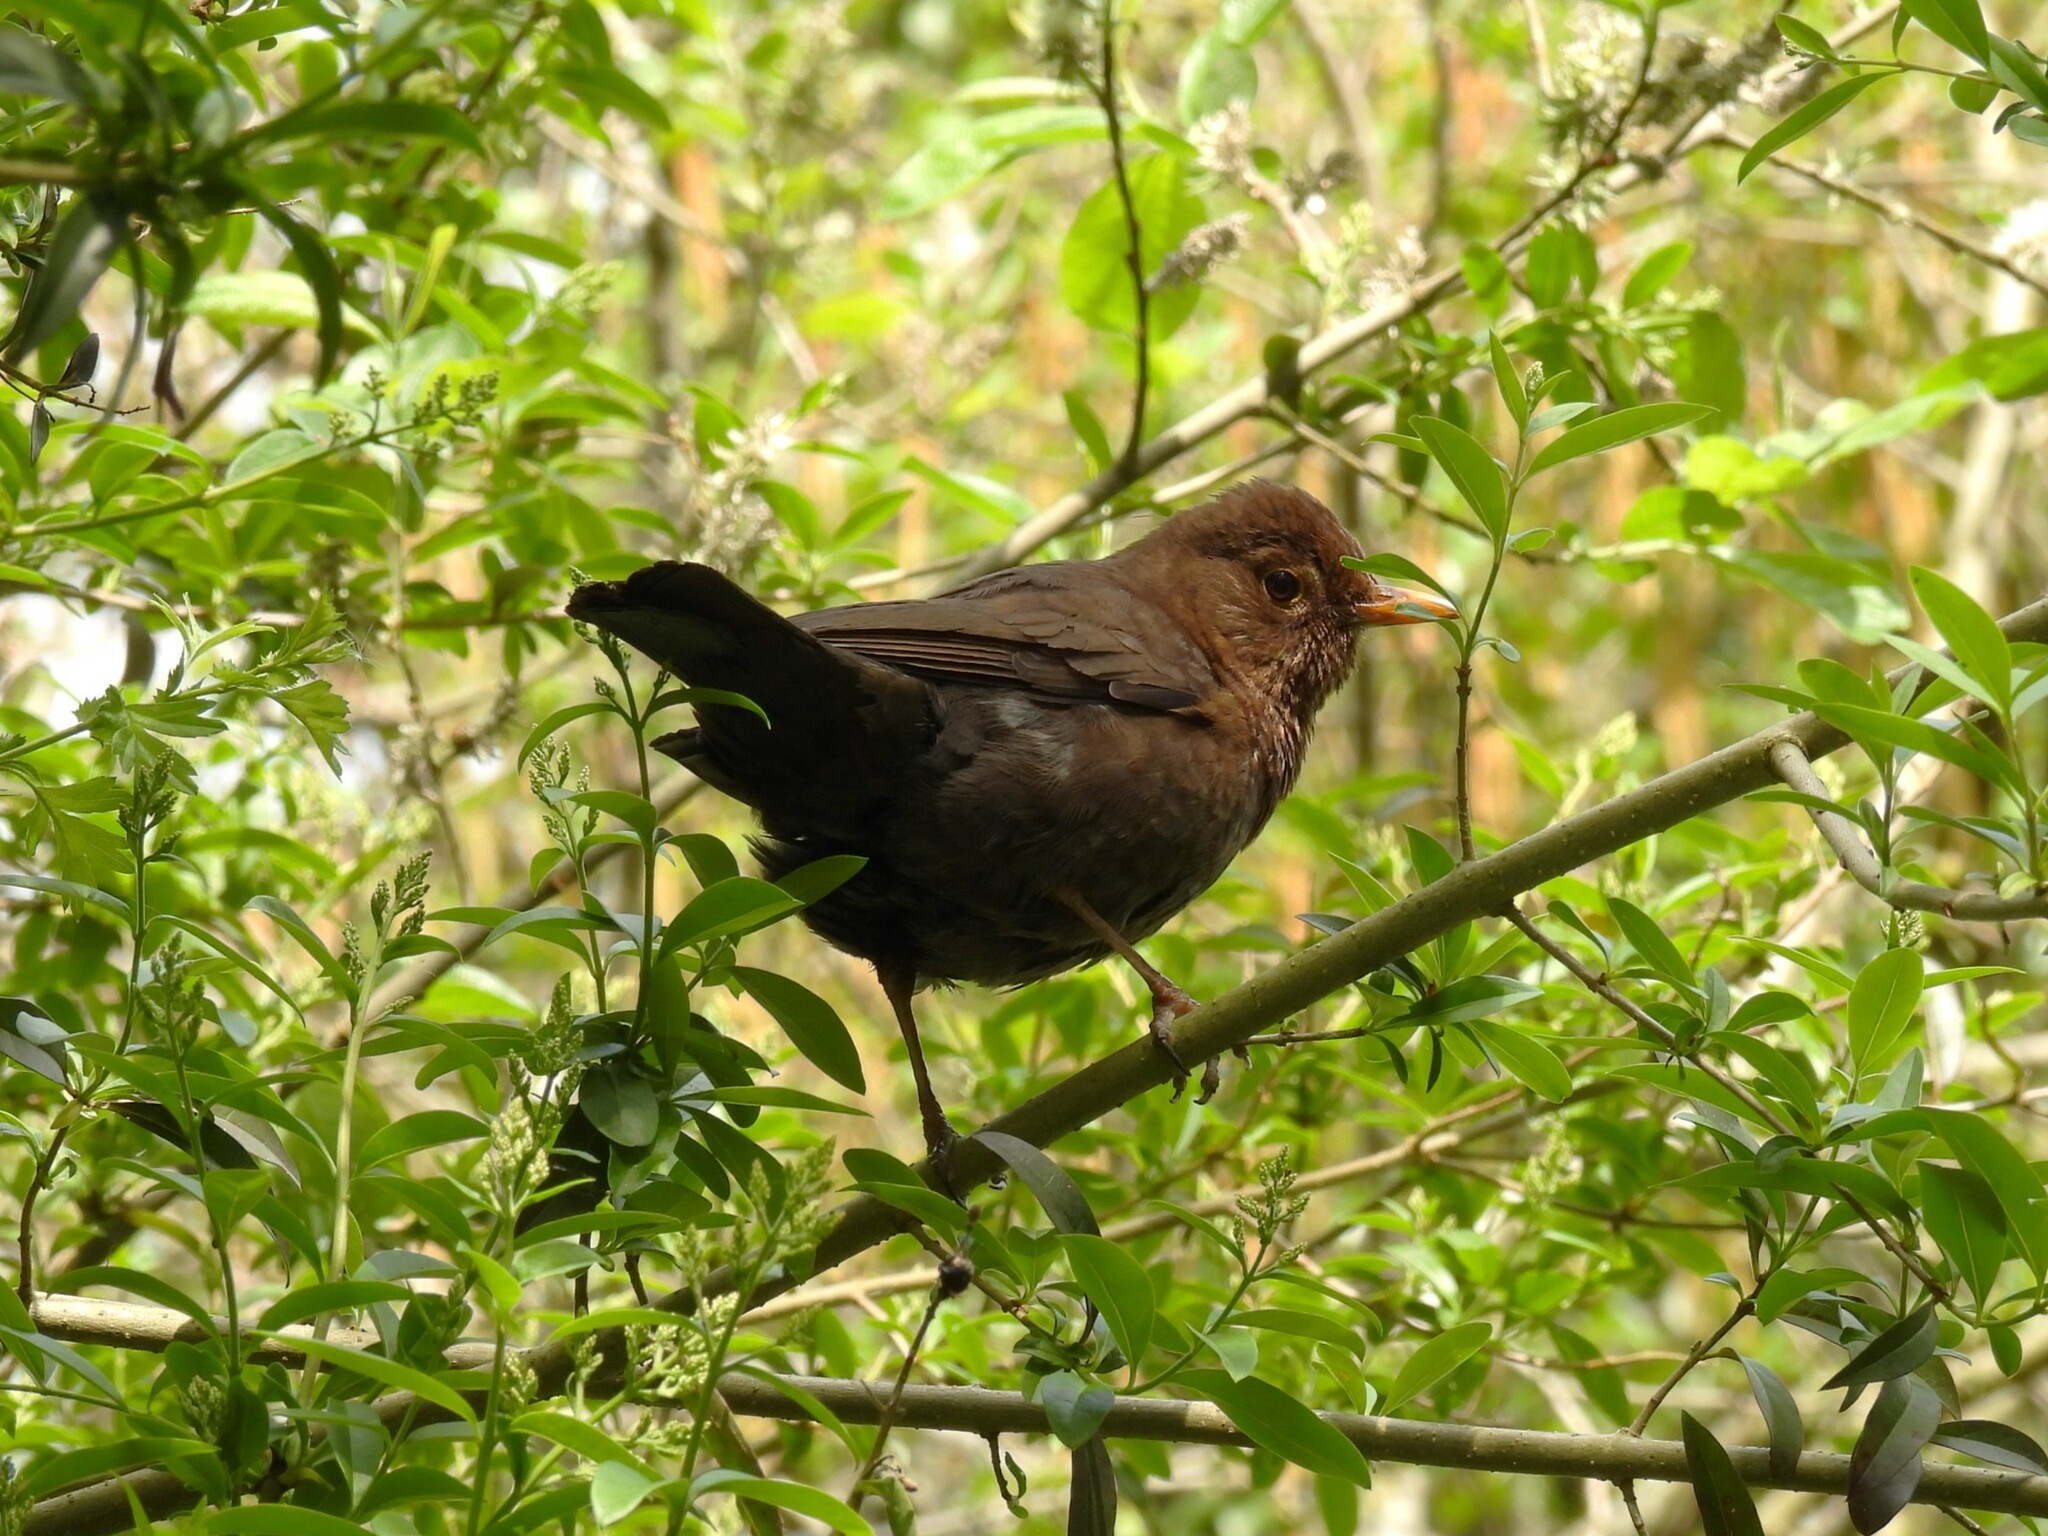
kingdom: Animalia
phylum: Chordata
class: Aves
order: Passeriformes
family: Turdidae
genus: Turdus
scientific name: Turdus merula
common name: Common blackbird
